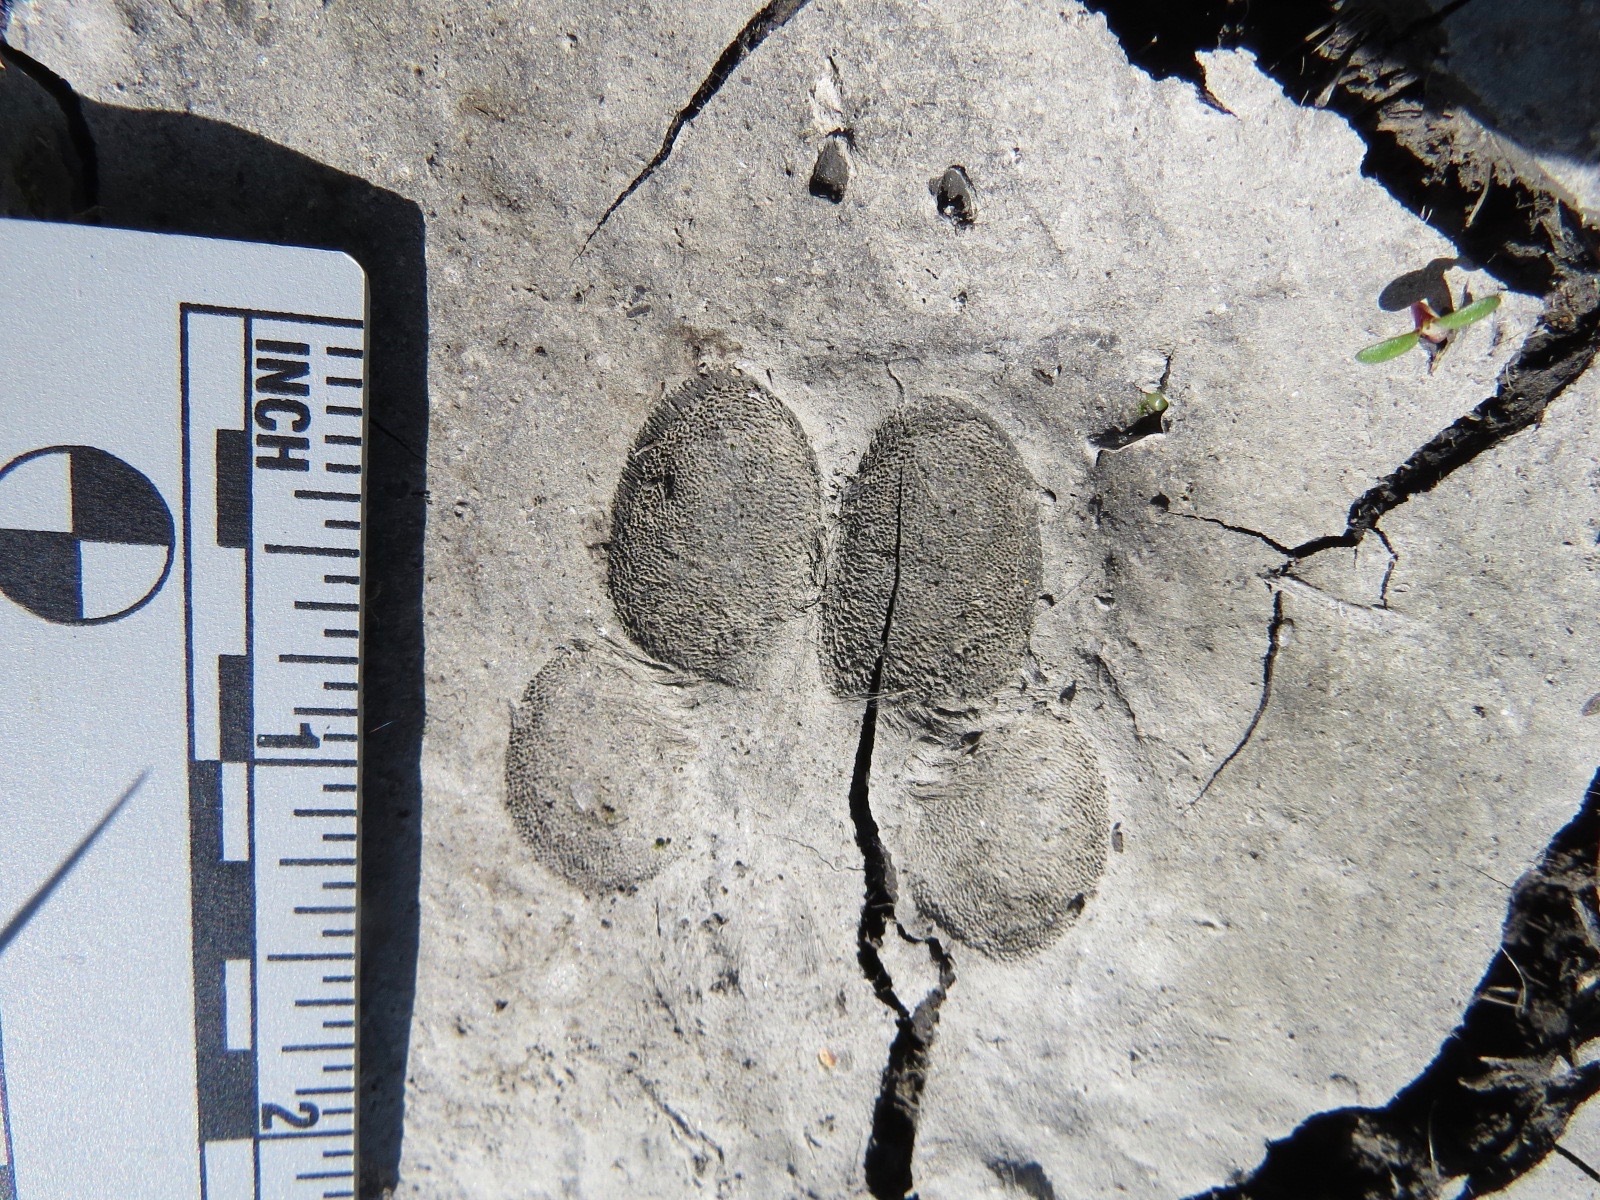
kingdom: Animalia
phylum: Chordata
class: Mammalia
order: Carnivora
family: Canidae
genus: Canis
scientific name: Canis latrans
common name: Coyote
